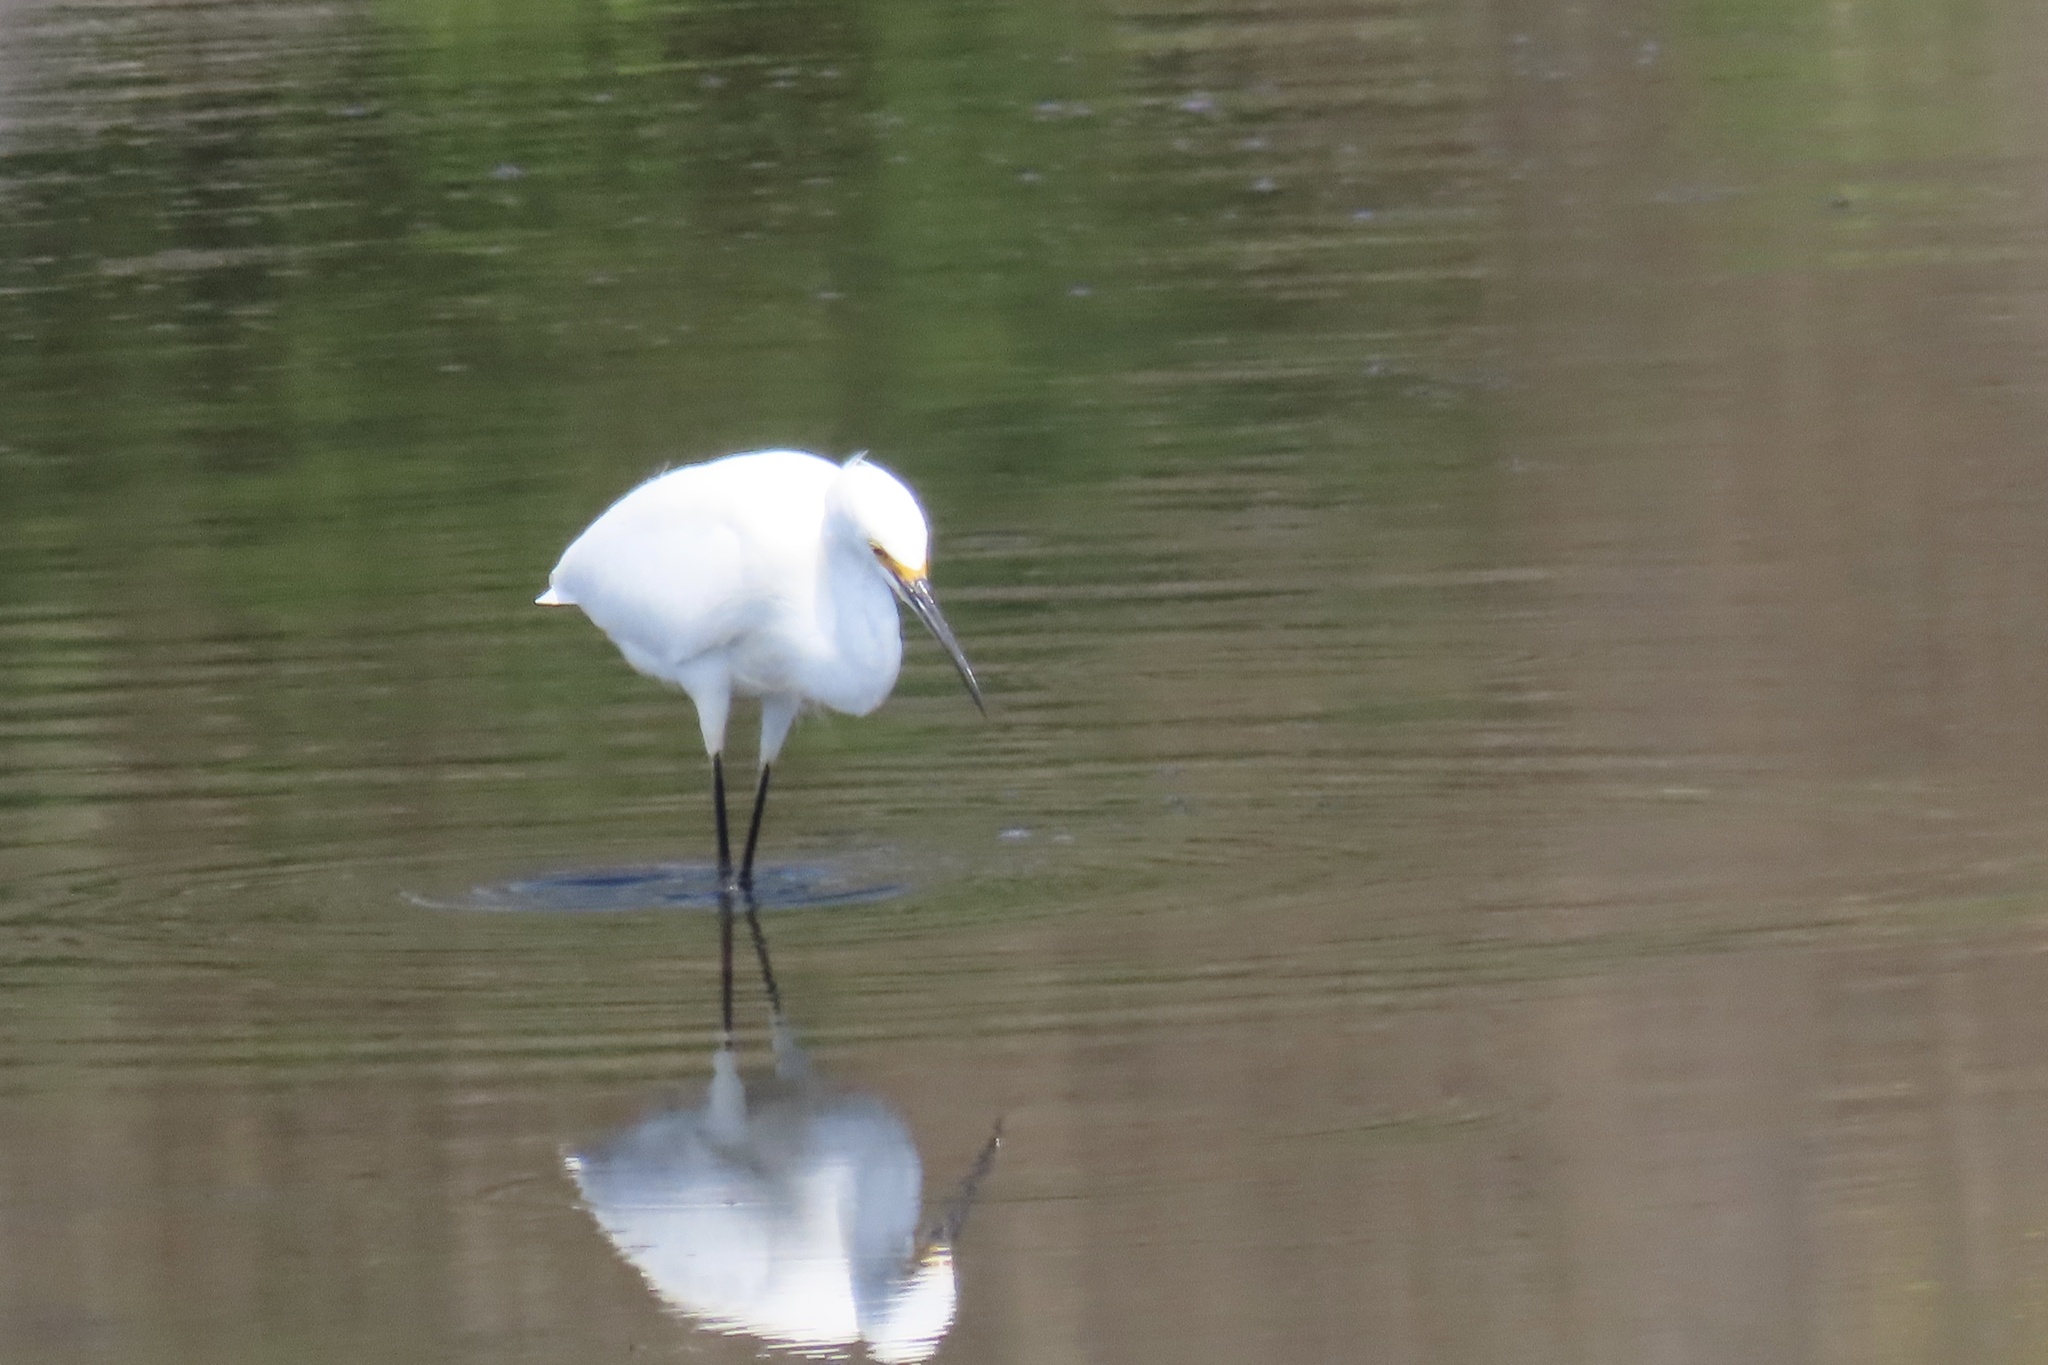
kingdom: Animalia
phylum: Chordata
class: Aves
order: Pelecaniformes
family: Ardeidae
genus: Egretta
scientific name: Egretta thula
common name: Snowy egret
